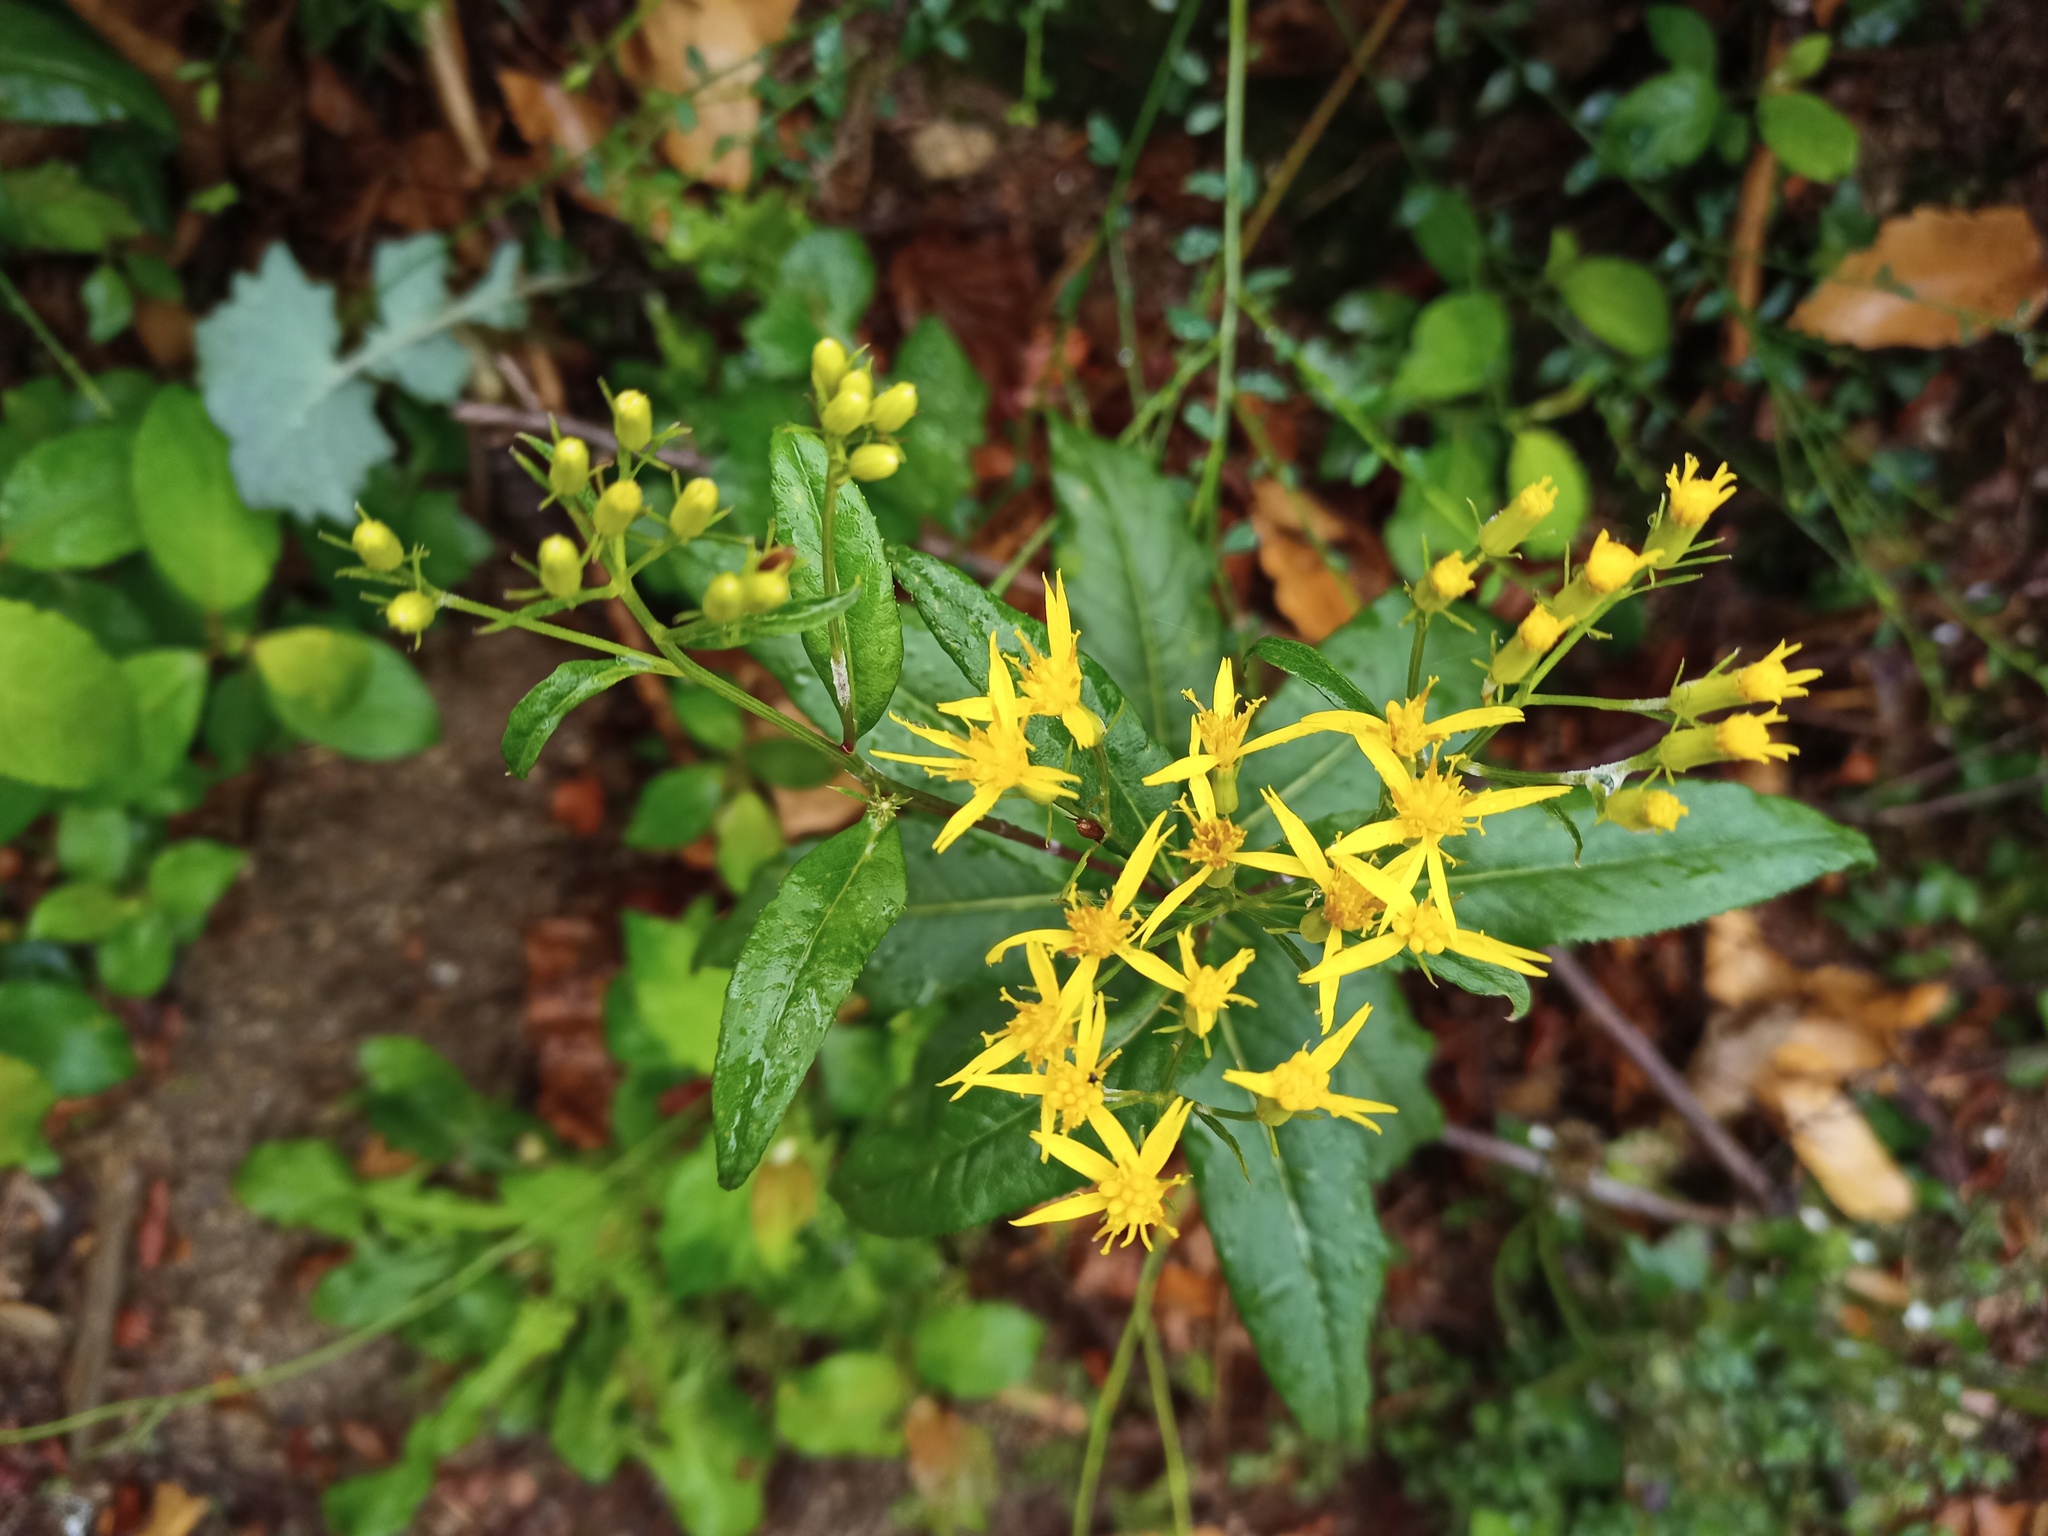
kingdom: Plantae
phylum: Tracheophyta
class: Magnoliopsida
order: Asterales
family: Asteraceae
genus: Senecio
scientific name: Senecio ovatus
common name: Wood ragwort
